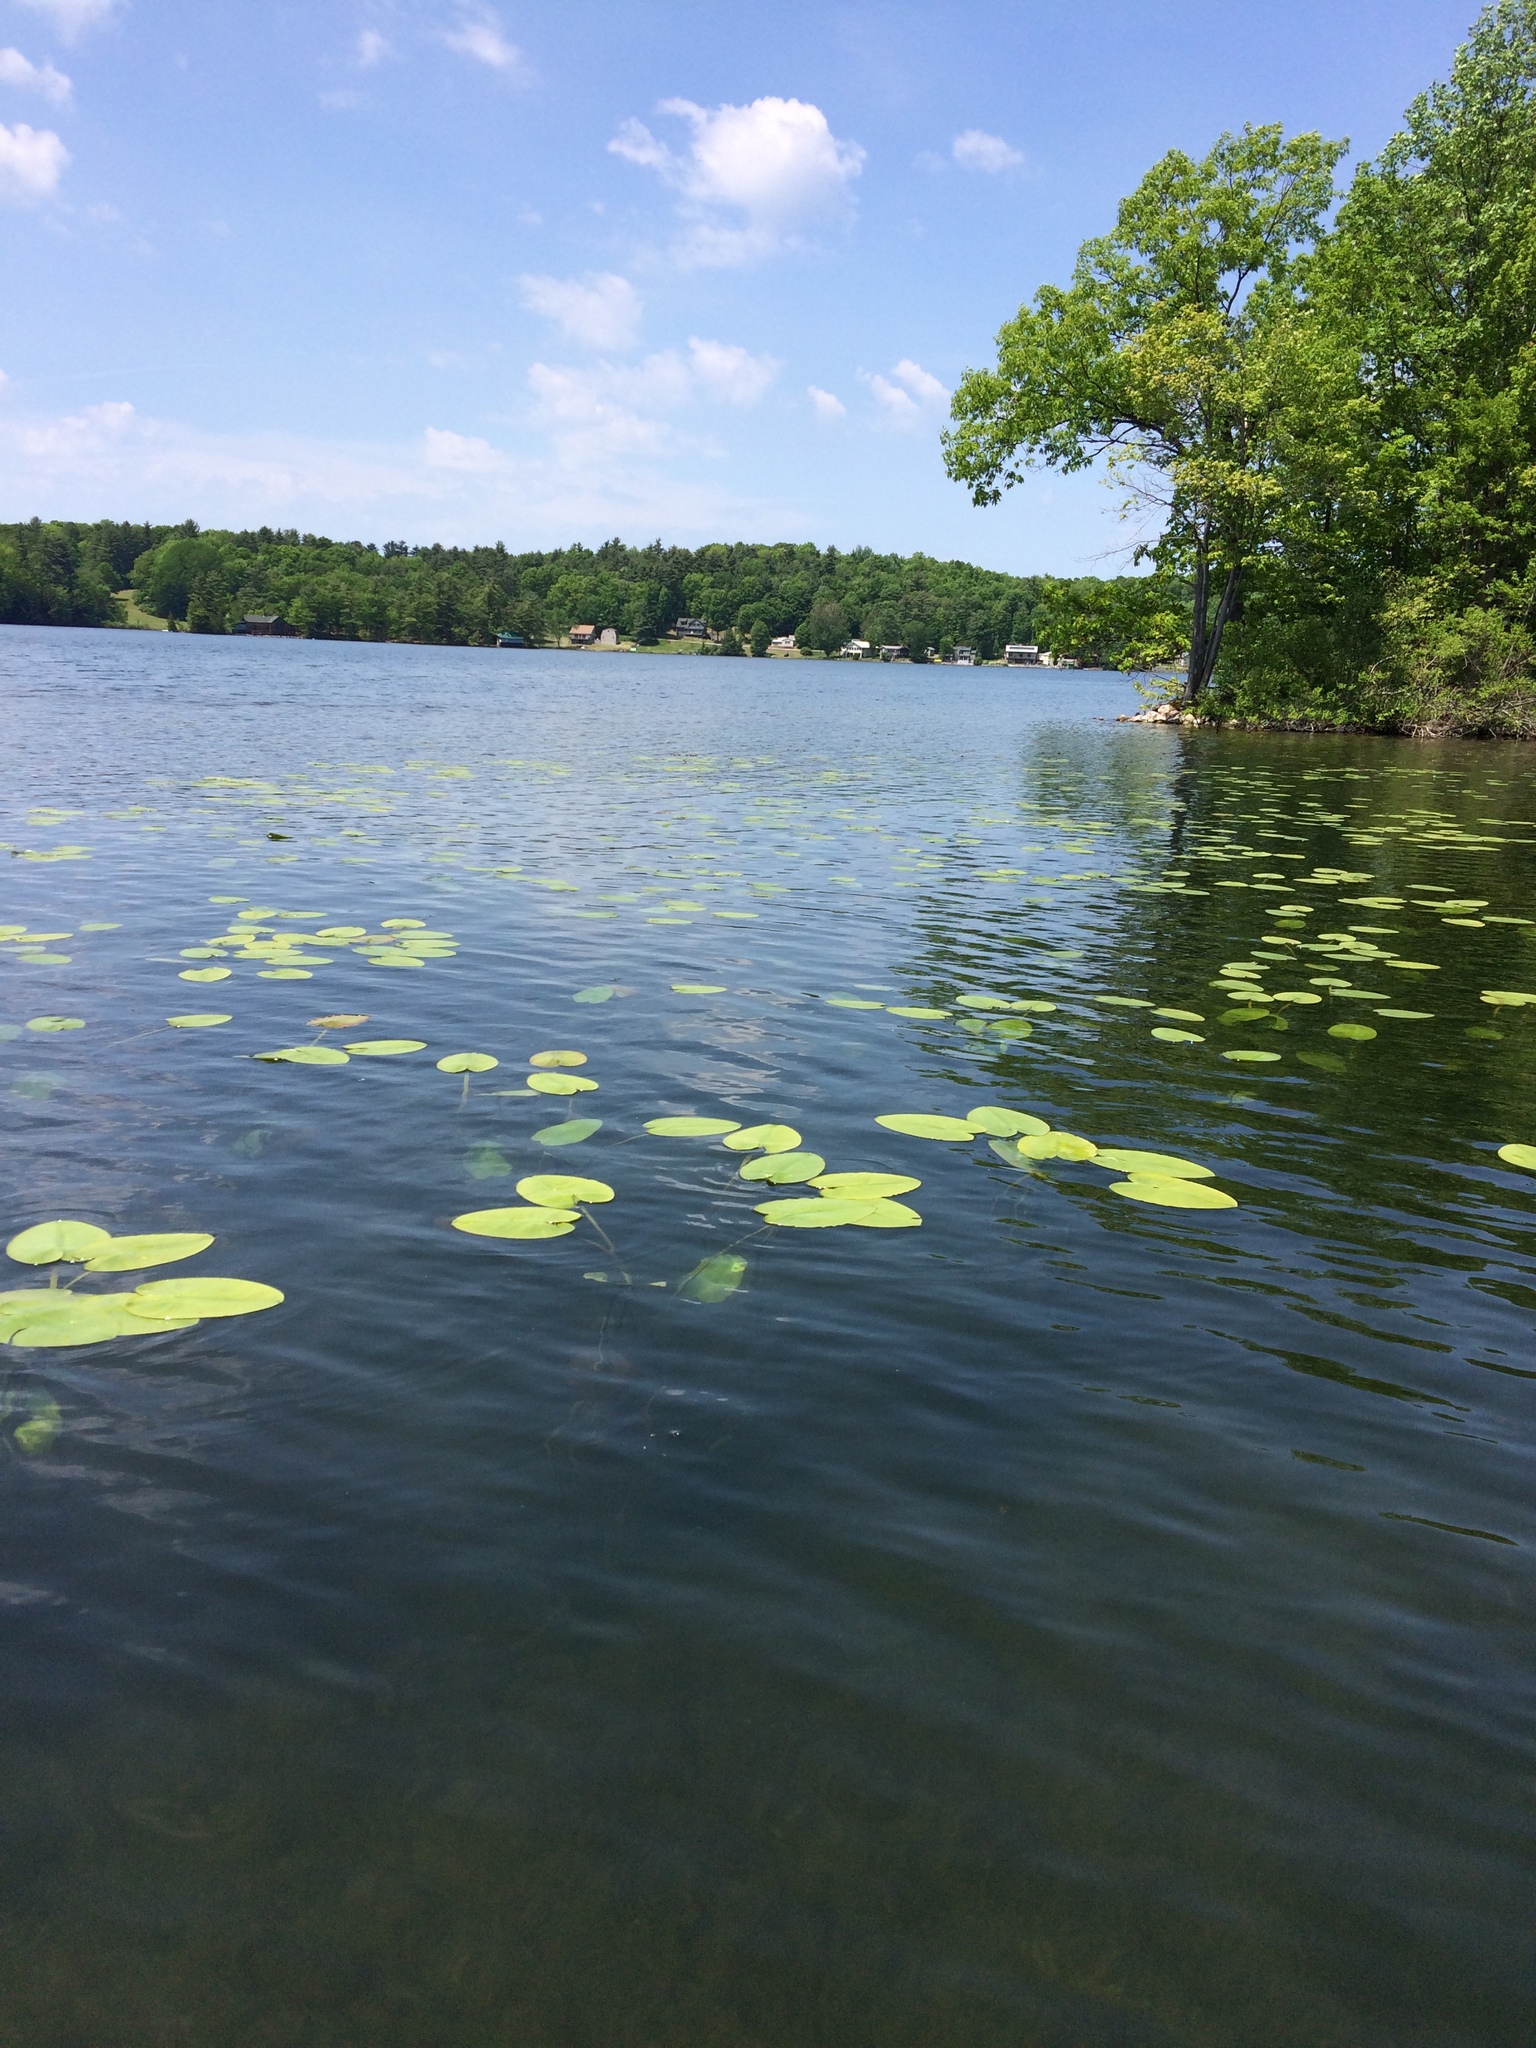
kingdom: Plantae
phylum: Tracheophyta
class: Magnoliopsida
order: Nymphaeales
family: Nymphaeaceae
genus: Nuphar
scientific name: Nuphar variegata
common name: Beaver-root
